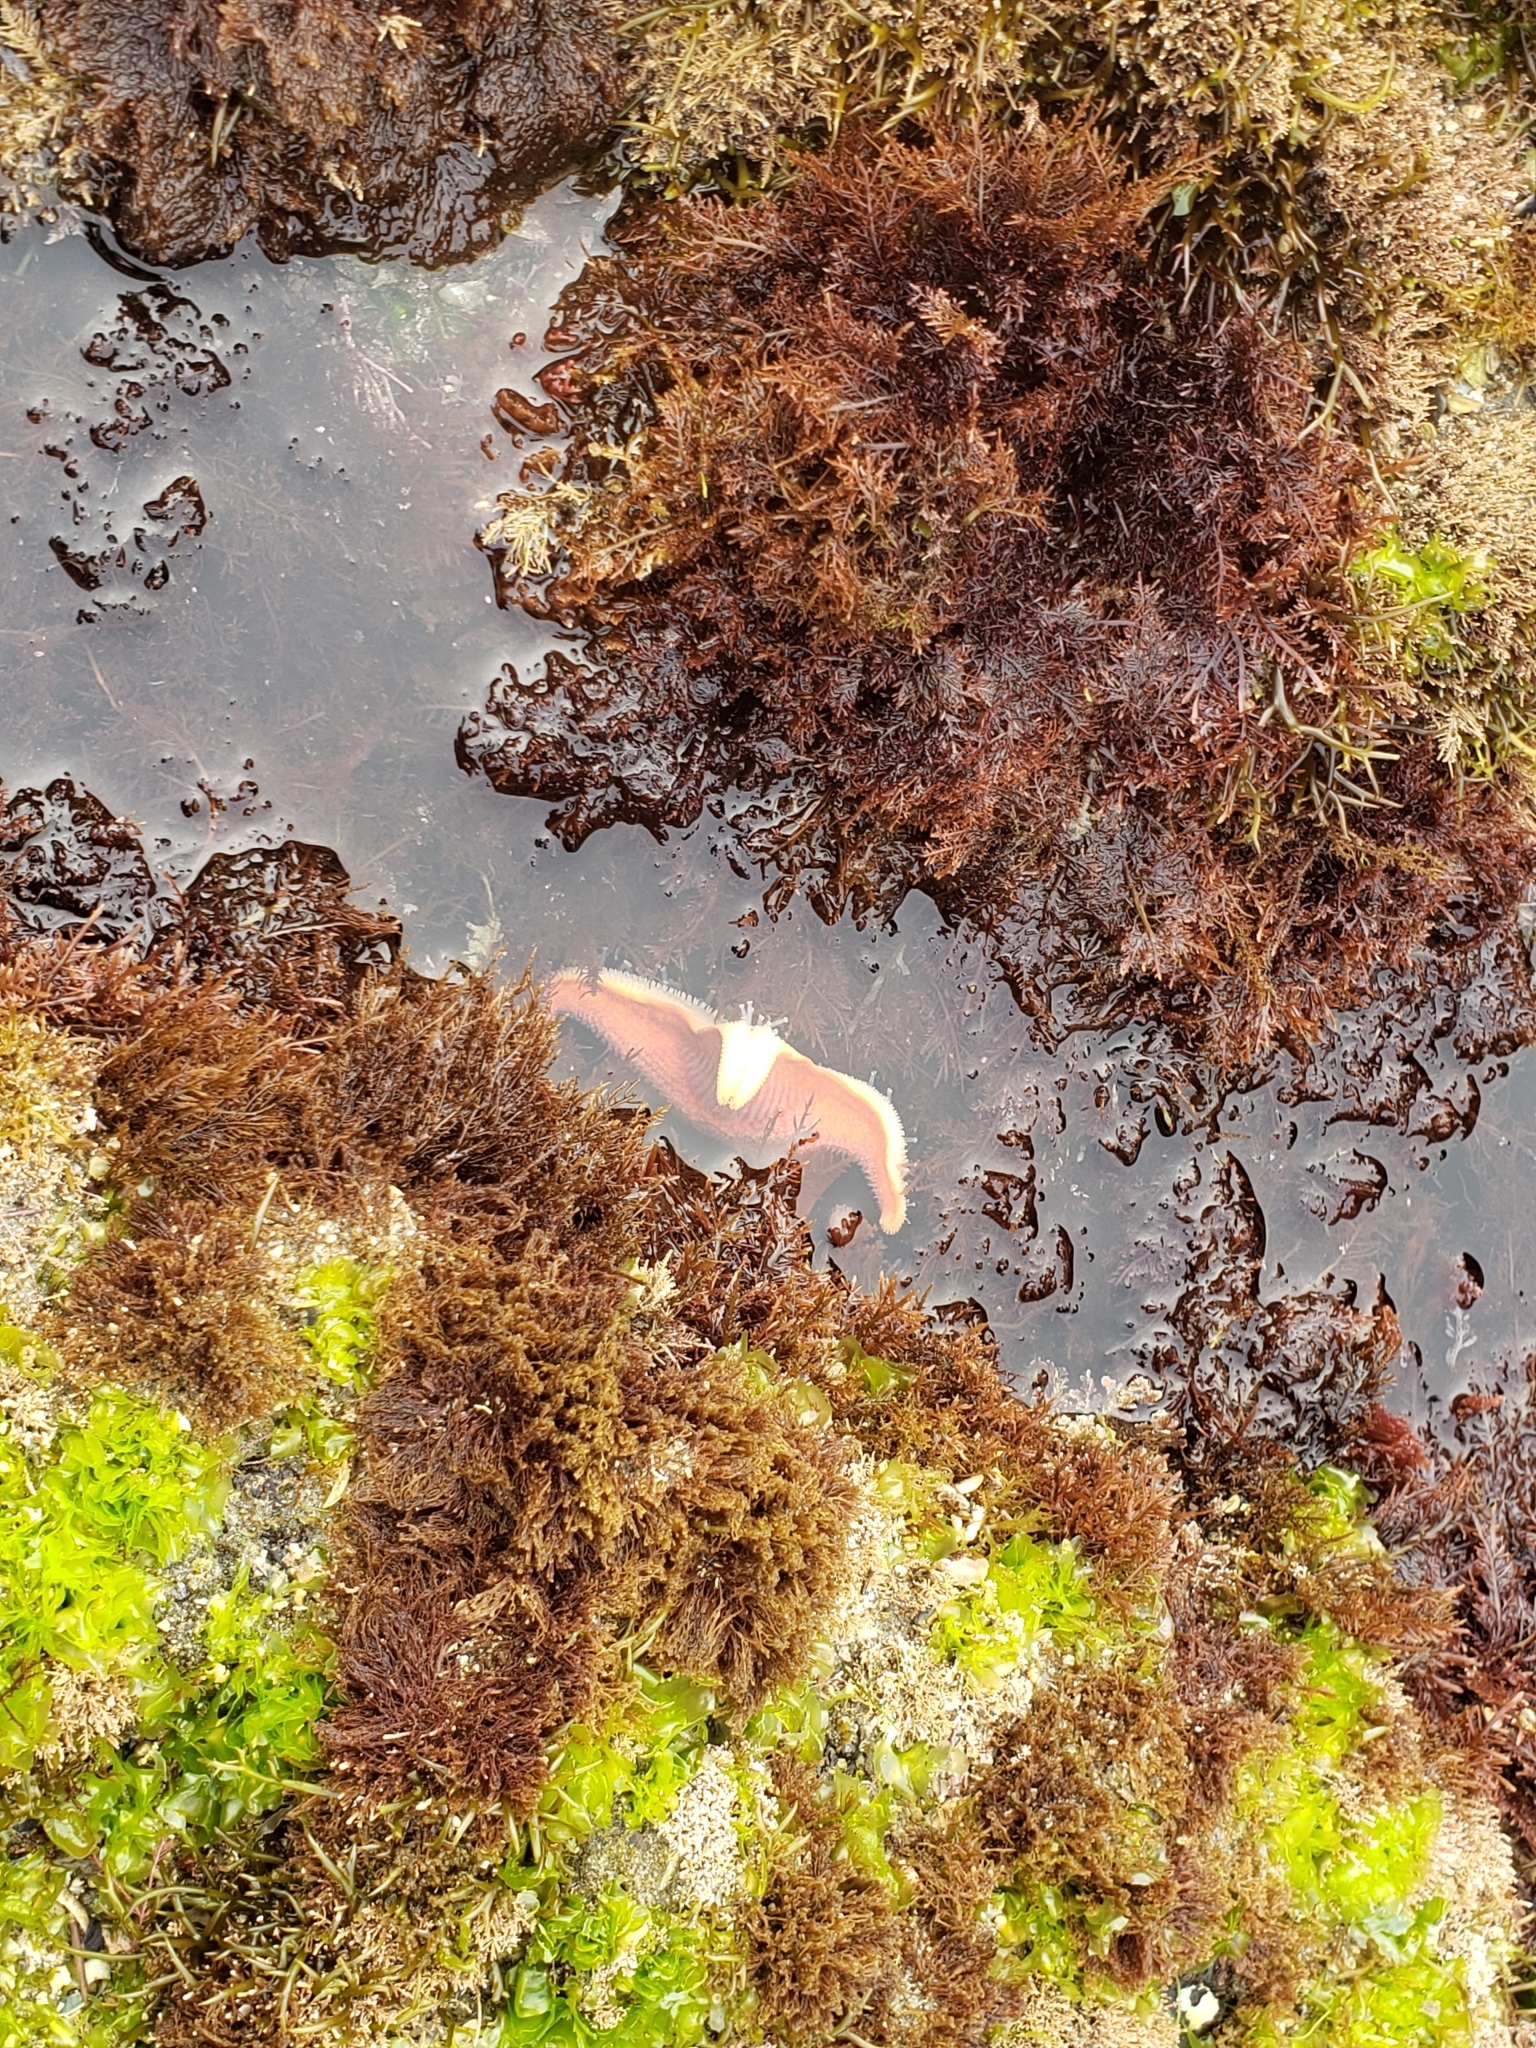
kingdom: Animalia
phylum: Echinodermata
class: Asteroidea
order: Valvatida
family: Asterinidae
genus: Patiria
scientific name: Patiria miniata
